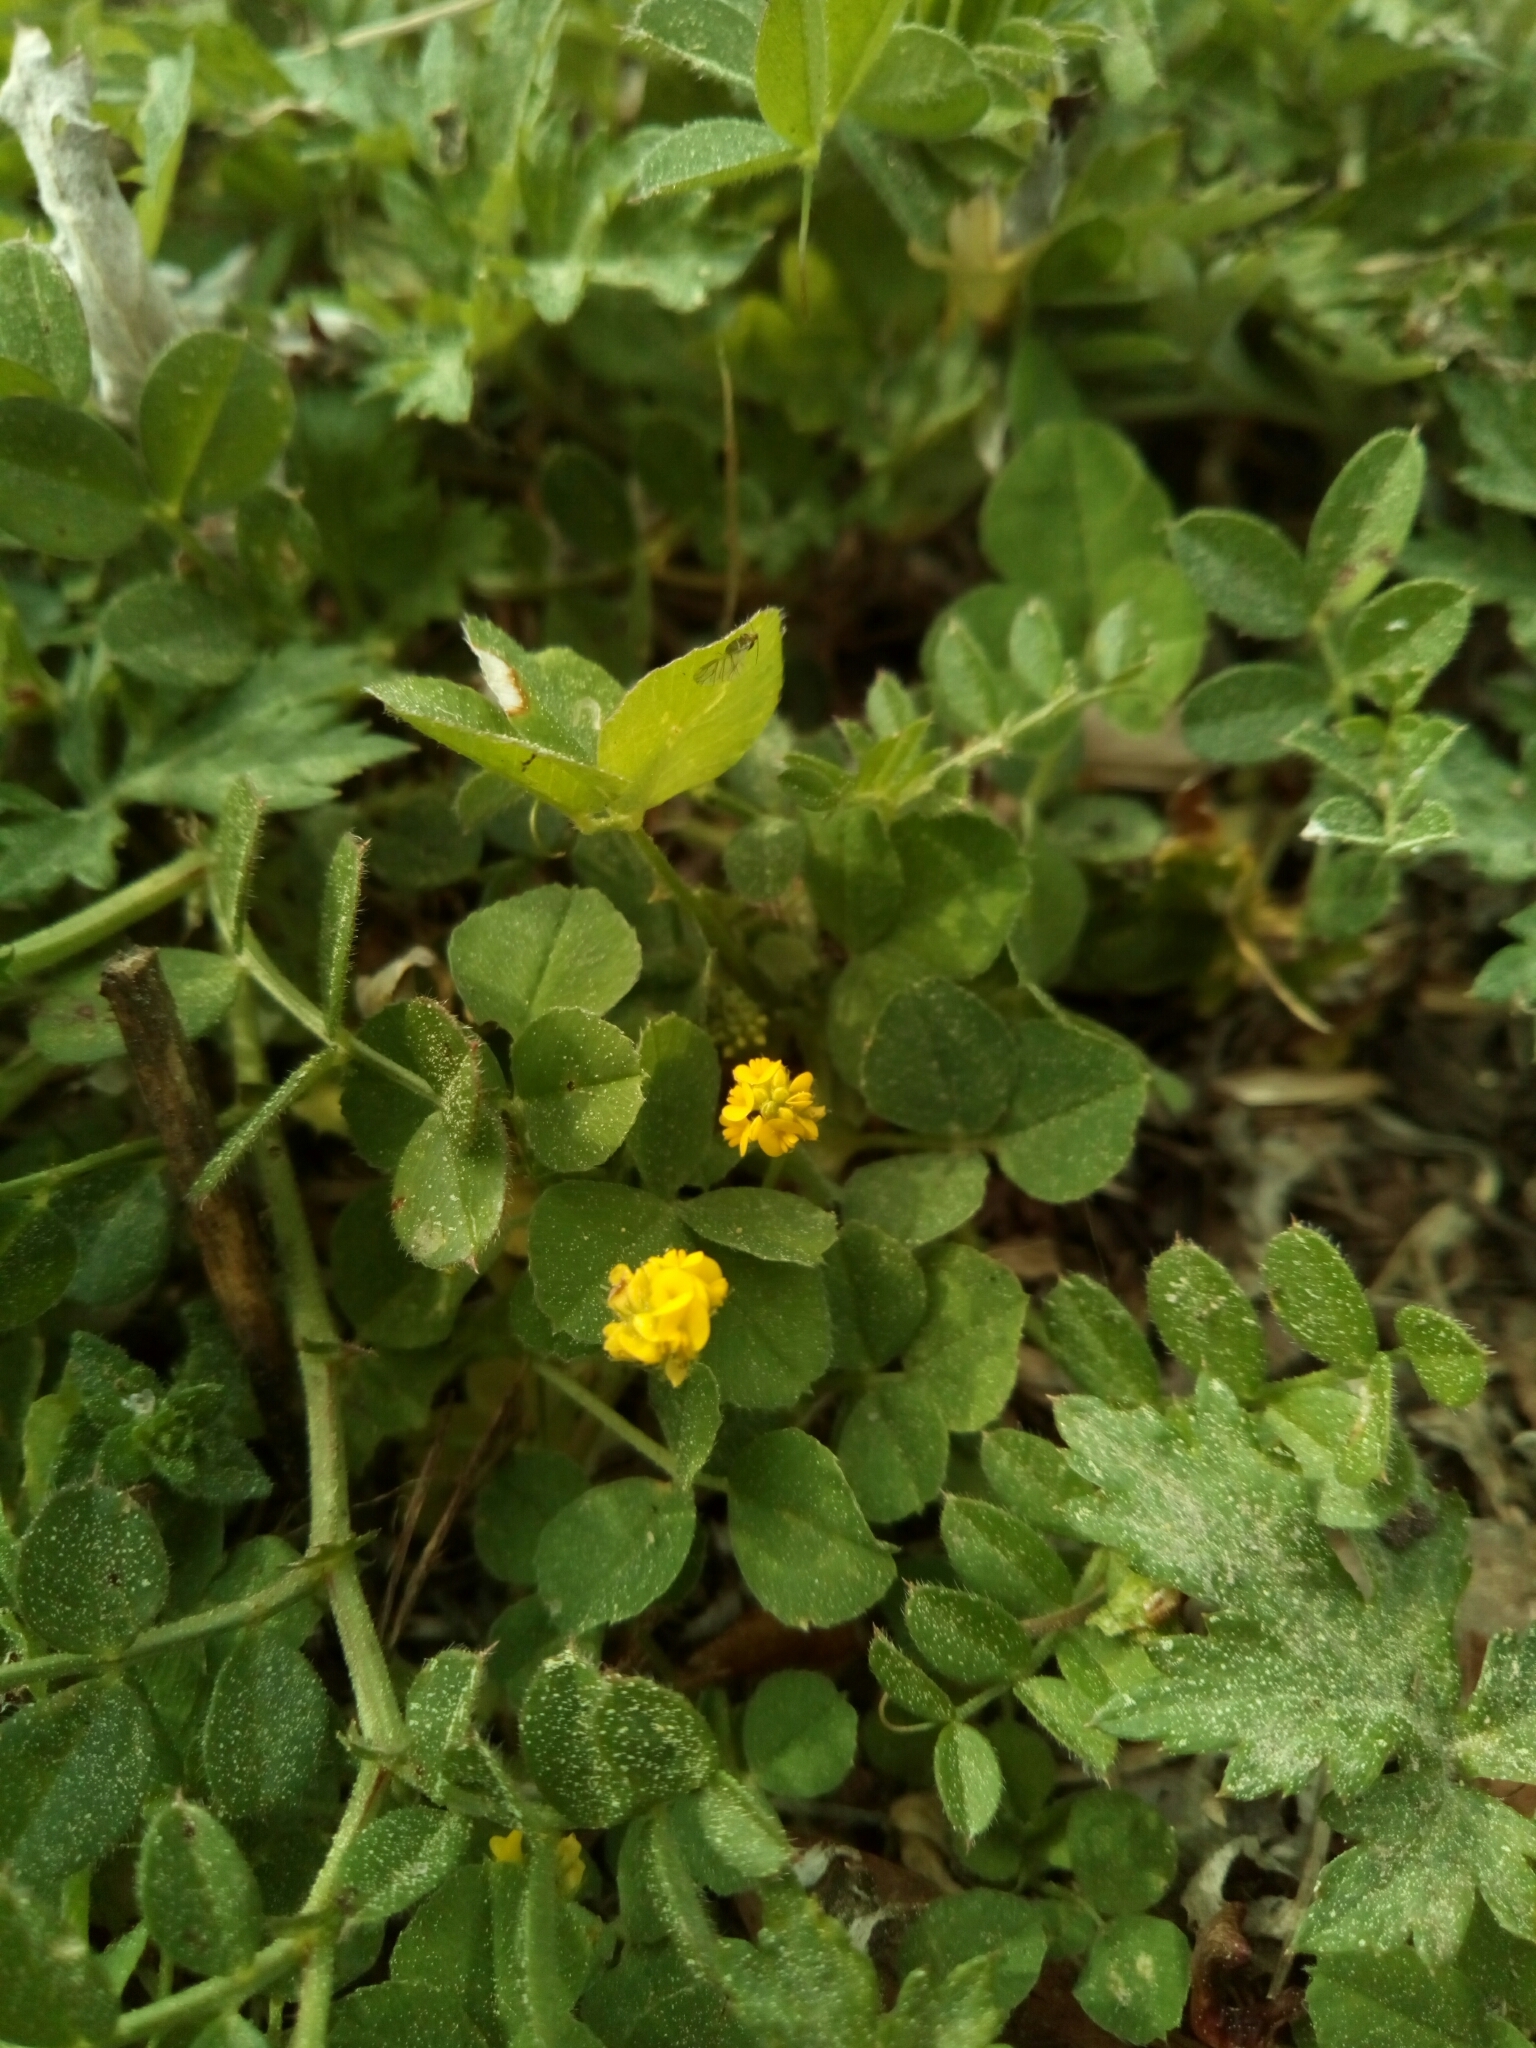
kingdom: Plantae
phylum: Tracheophyta
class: Magnoliopsida
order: Fabales
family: Fabaceae
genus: Medicago
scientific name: Medicago lupulina
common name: Black medick
